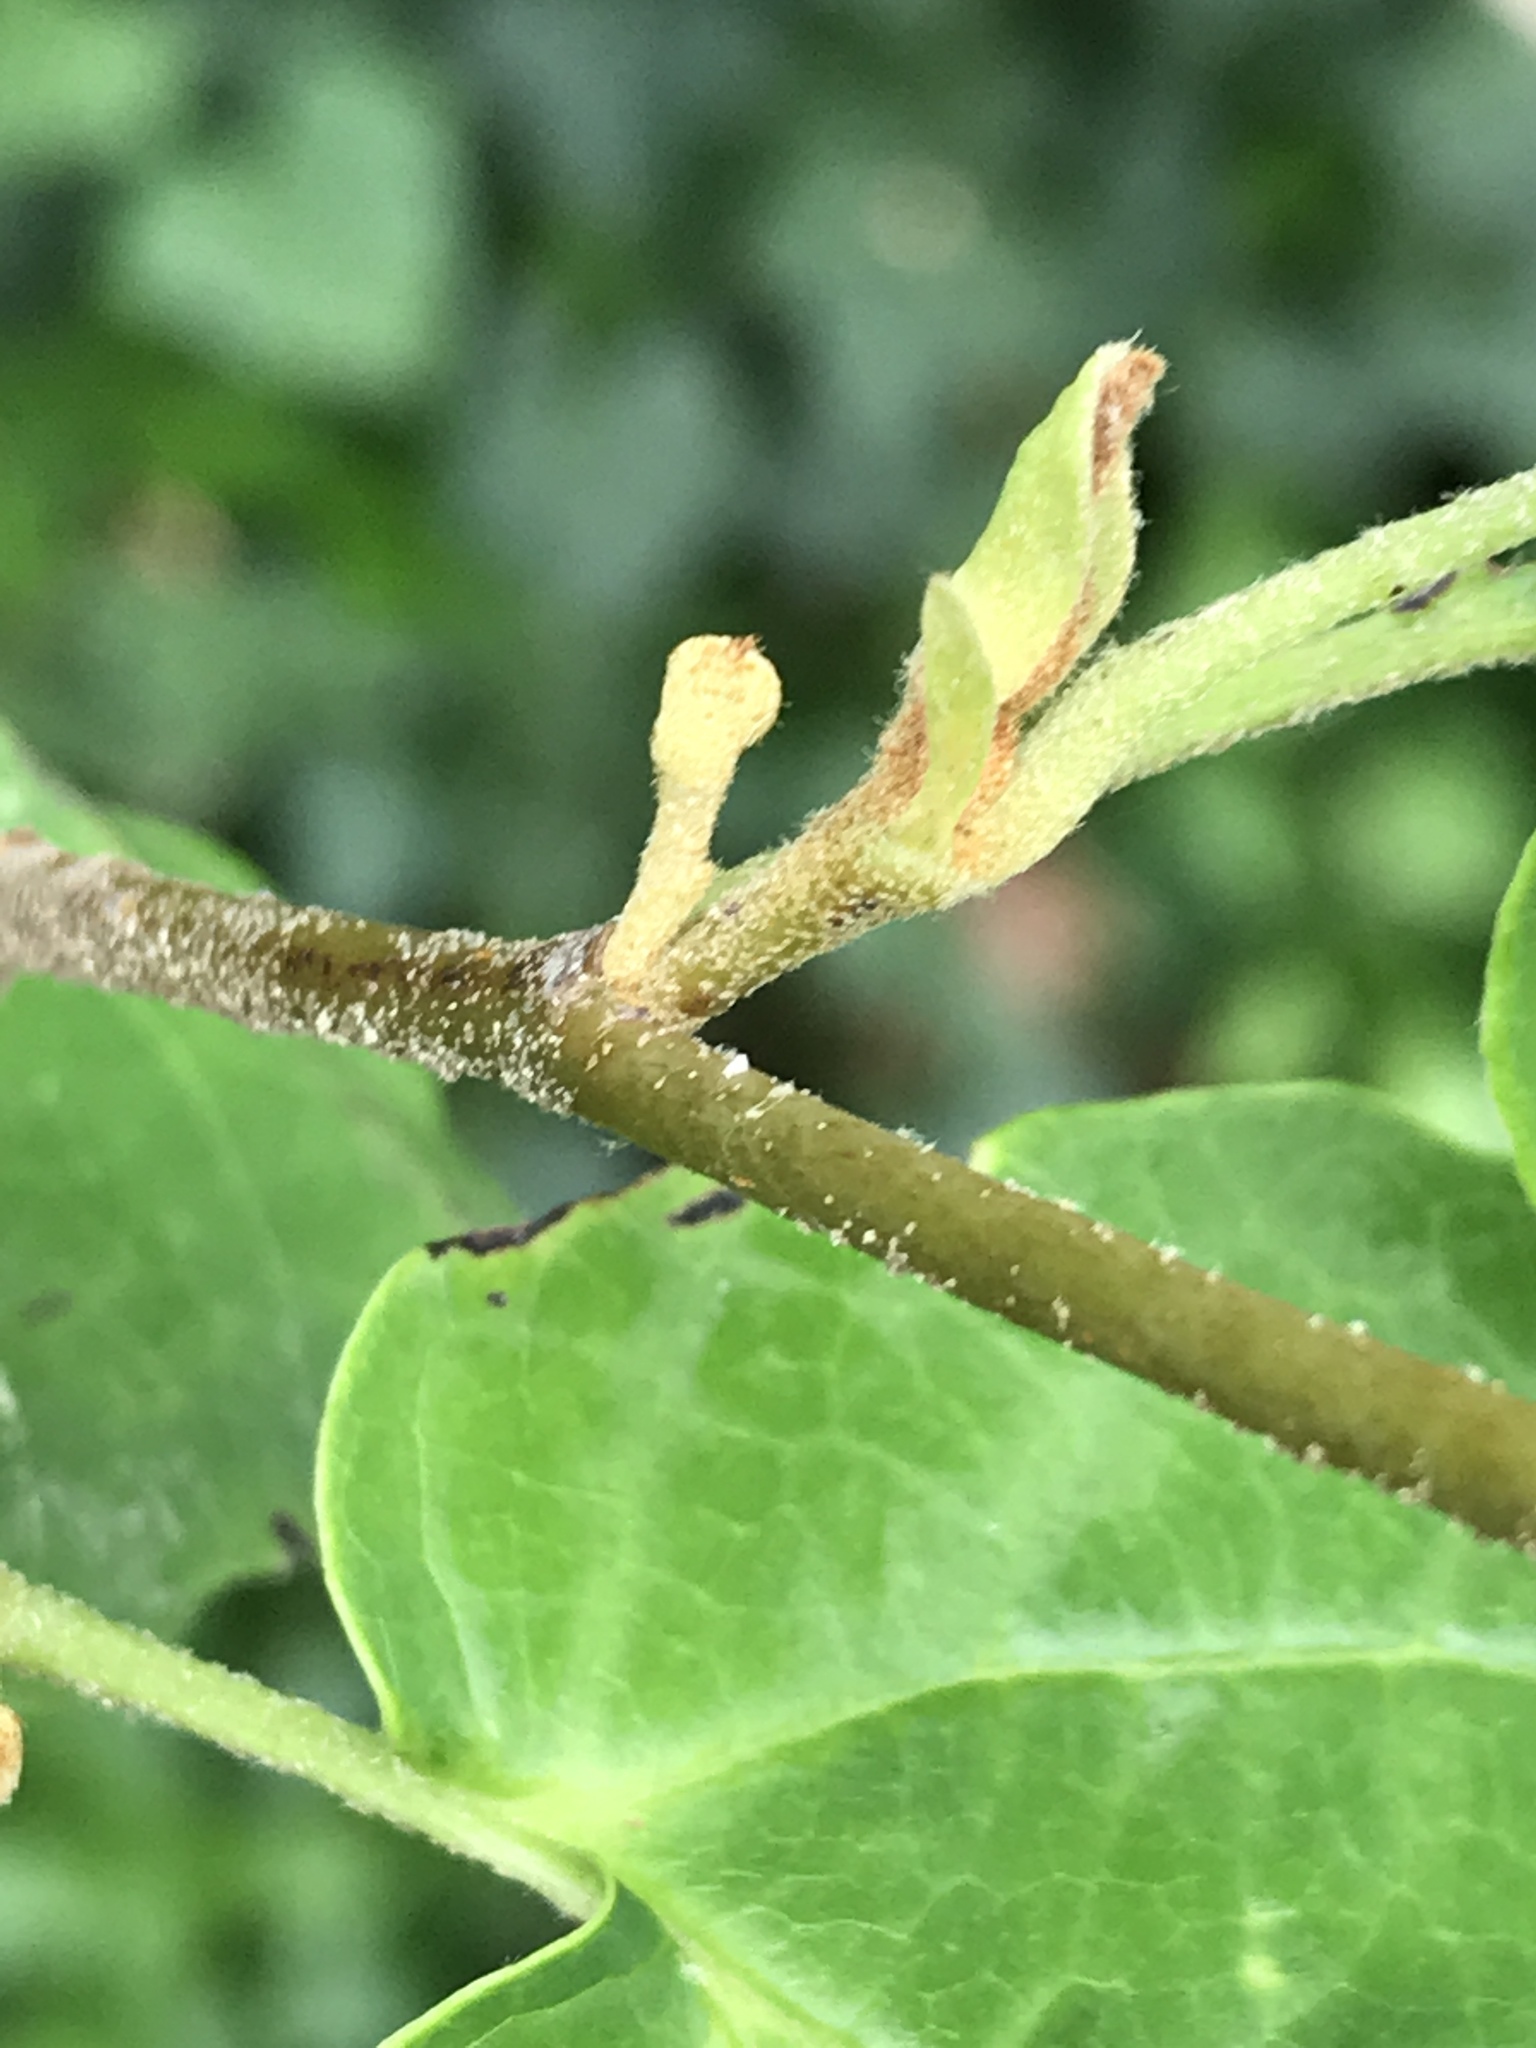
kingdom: Plantae
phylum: Tracheophyta
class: Magnoliopsida
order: Saxifragales
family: Hamamelidaceae
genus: Hamamelis
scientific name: Hamamelis virginiana
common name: Witch-hazel
